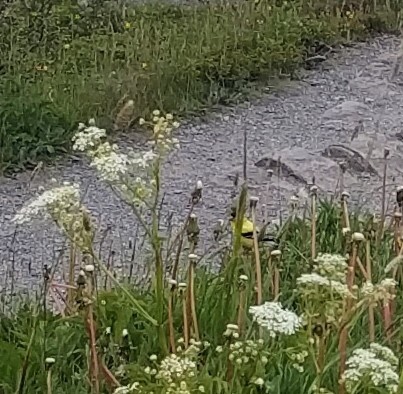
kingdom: Animalia
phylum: Chordata
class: Aves
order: Passeriformes
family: Fringillidae
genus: Spinus
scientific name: Spinus tristis
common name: American goldfinch
